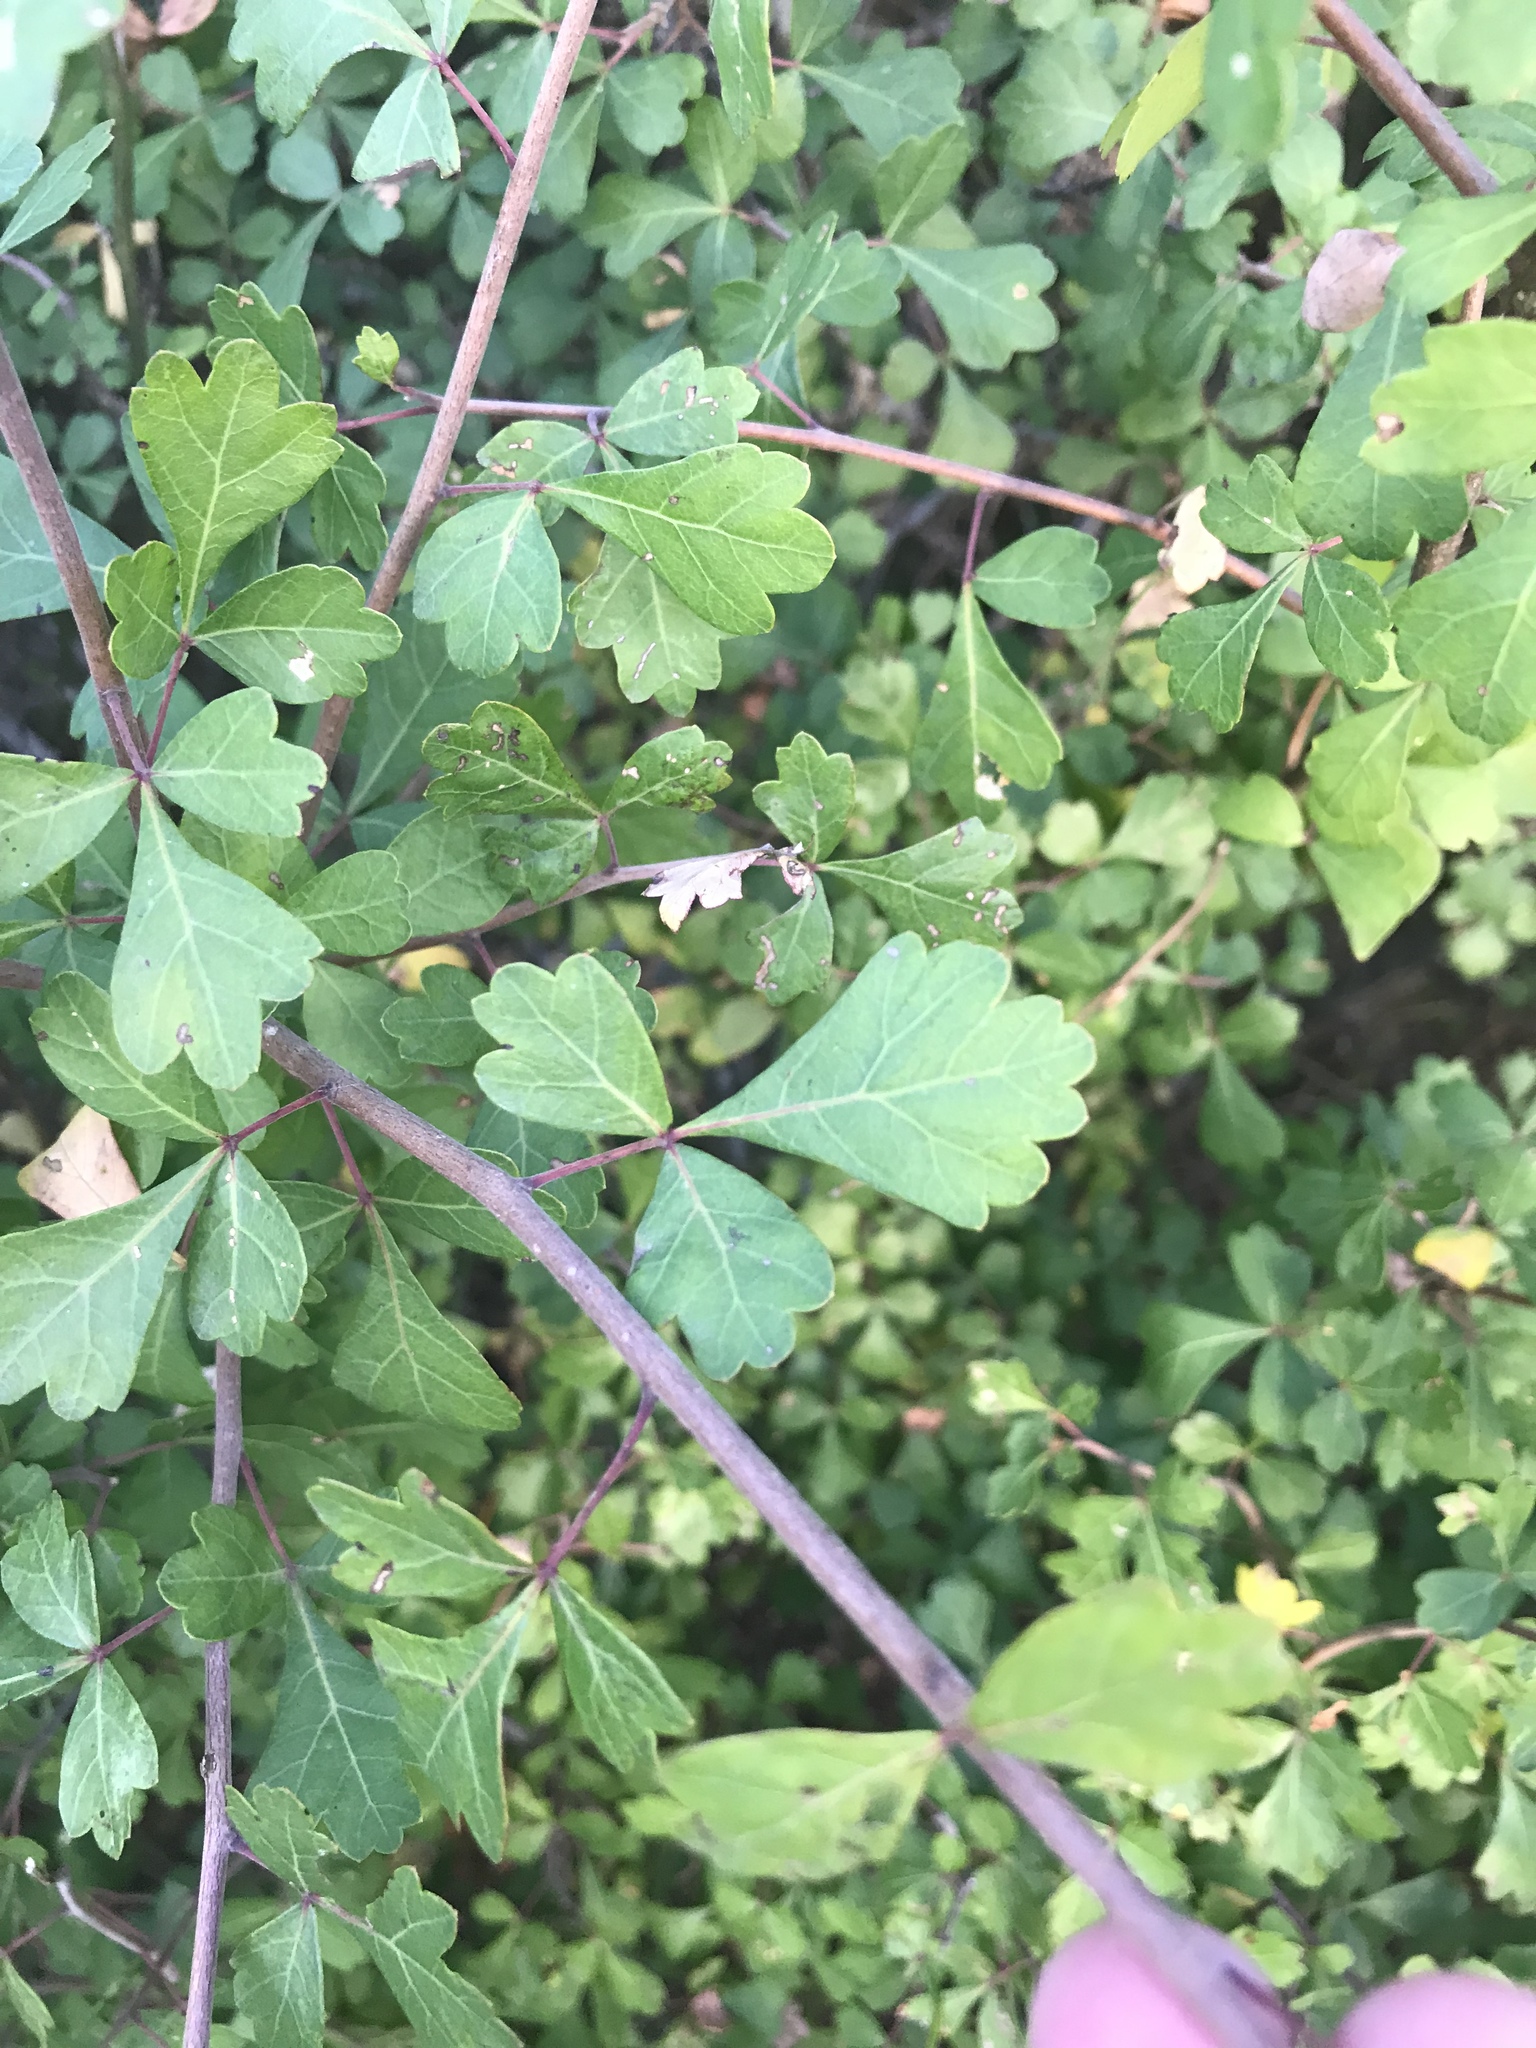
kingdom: Plantae
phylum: Tracheophyta
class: Magnoliopsida
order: Sapindales
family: Anacardiaceae
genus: Rhus
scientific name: Rhus aromatica
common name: Aromatic sumac
